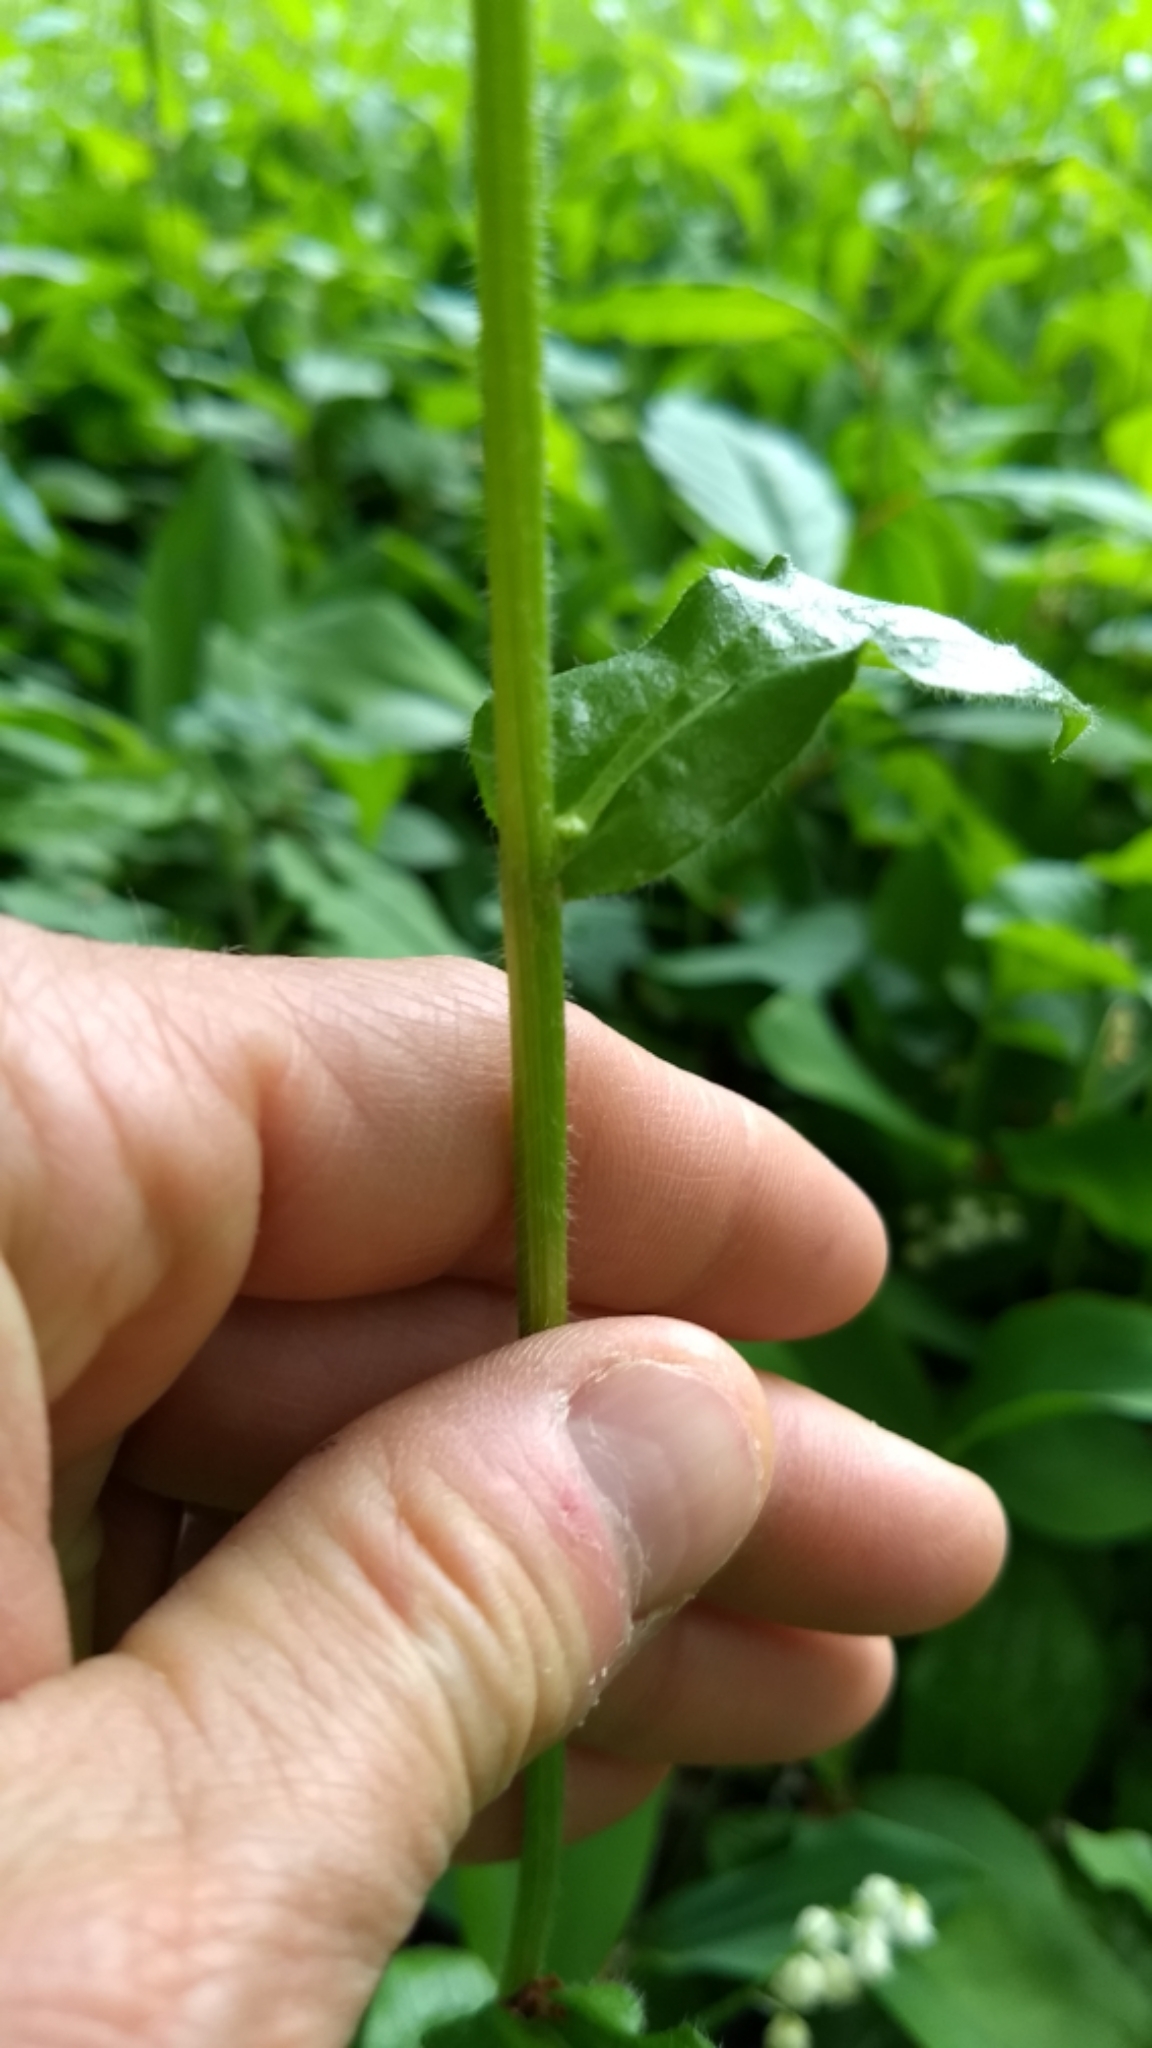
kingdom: Plantae
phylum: Tracheophyta
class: Magnoliopsida
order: Asterales
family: Asteraceae
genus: Erigeron
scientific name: Erigeron pulchellus
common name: Hairy fleabane
